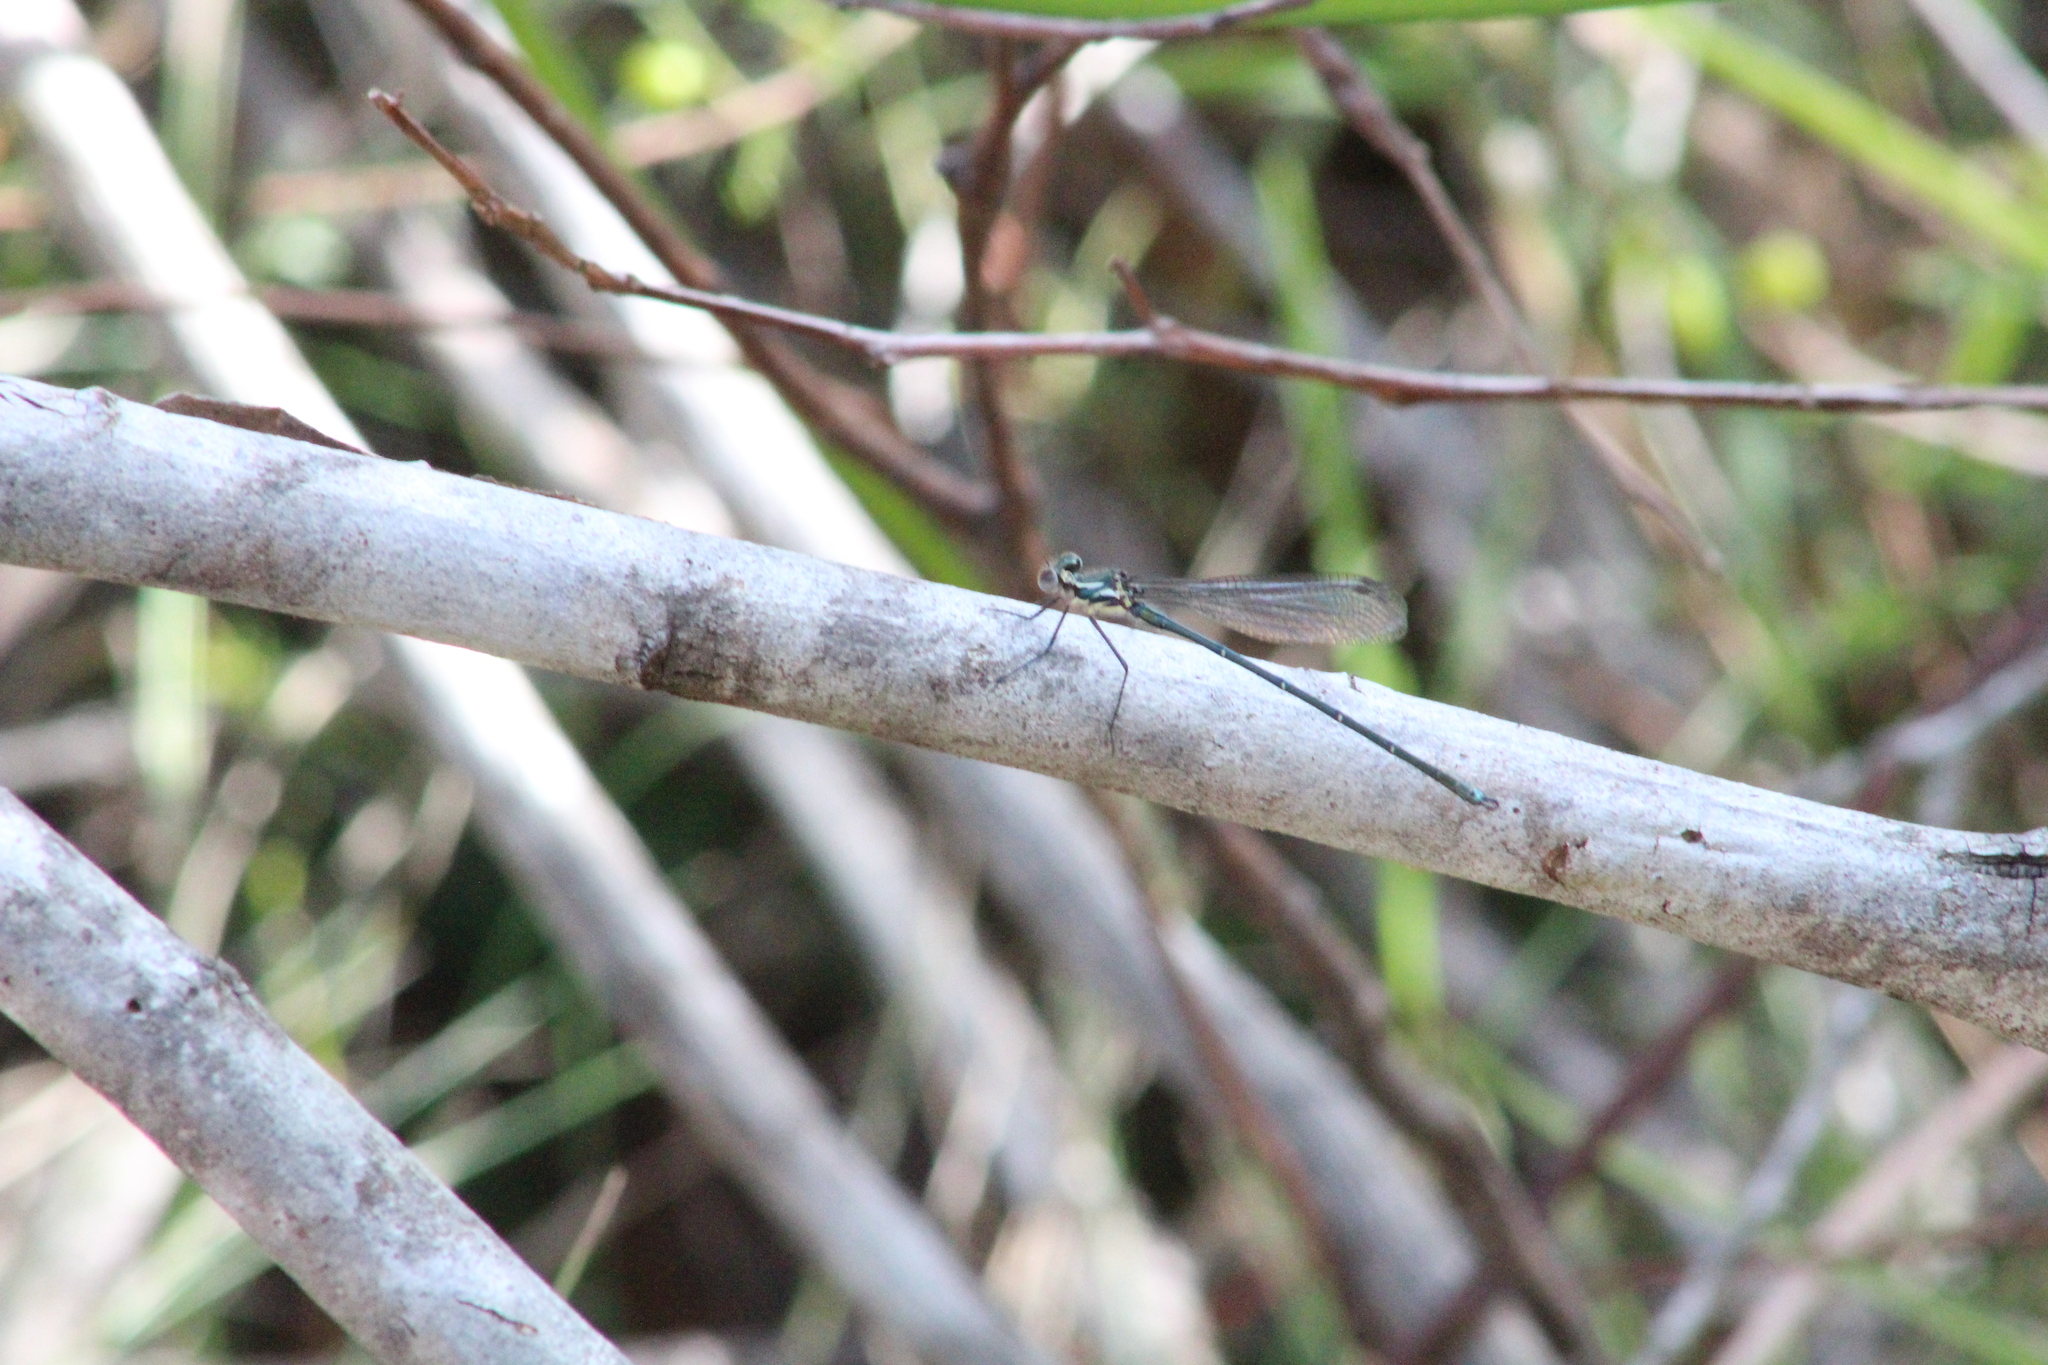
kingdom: Animalia
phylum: Arthropoda
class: Insecta
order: Odonata
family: Argiolestidae
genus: Austroargiolestes
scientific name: Austroargiolestes icteromelas
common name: Common flatwing
